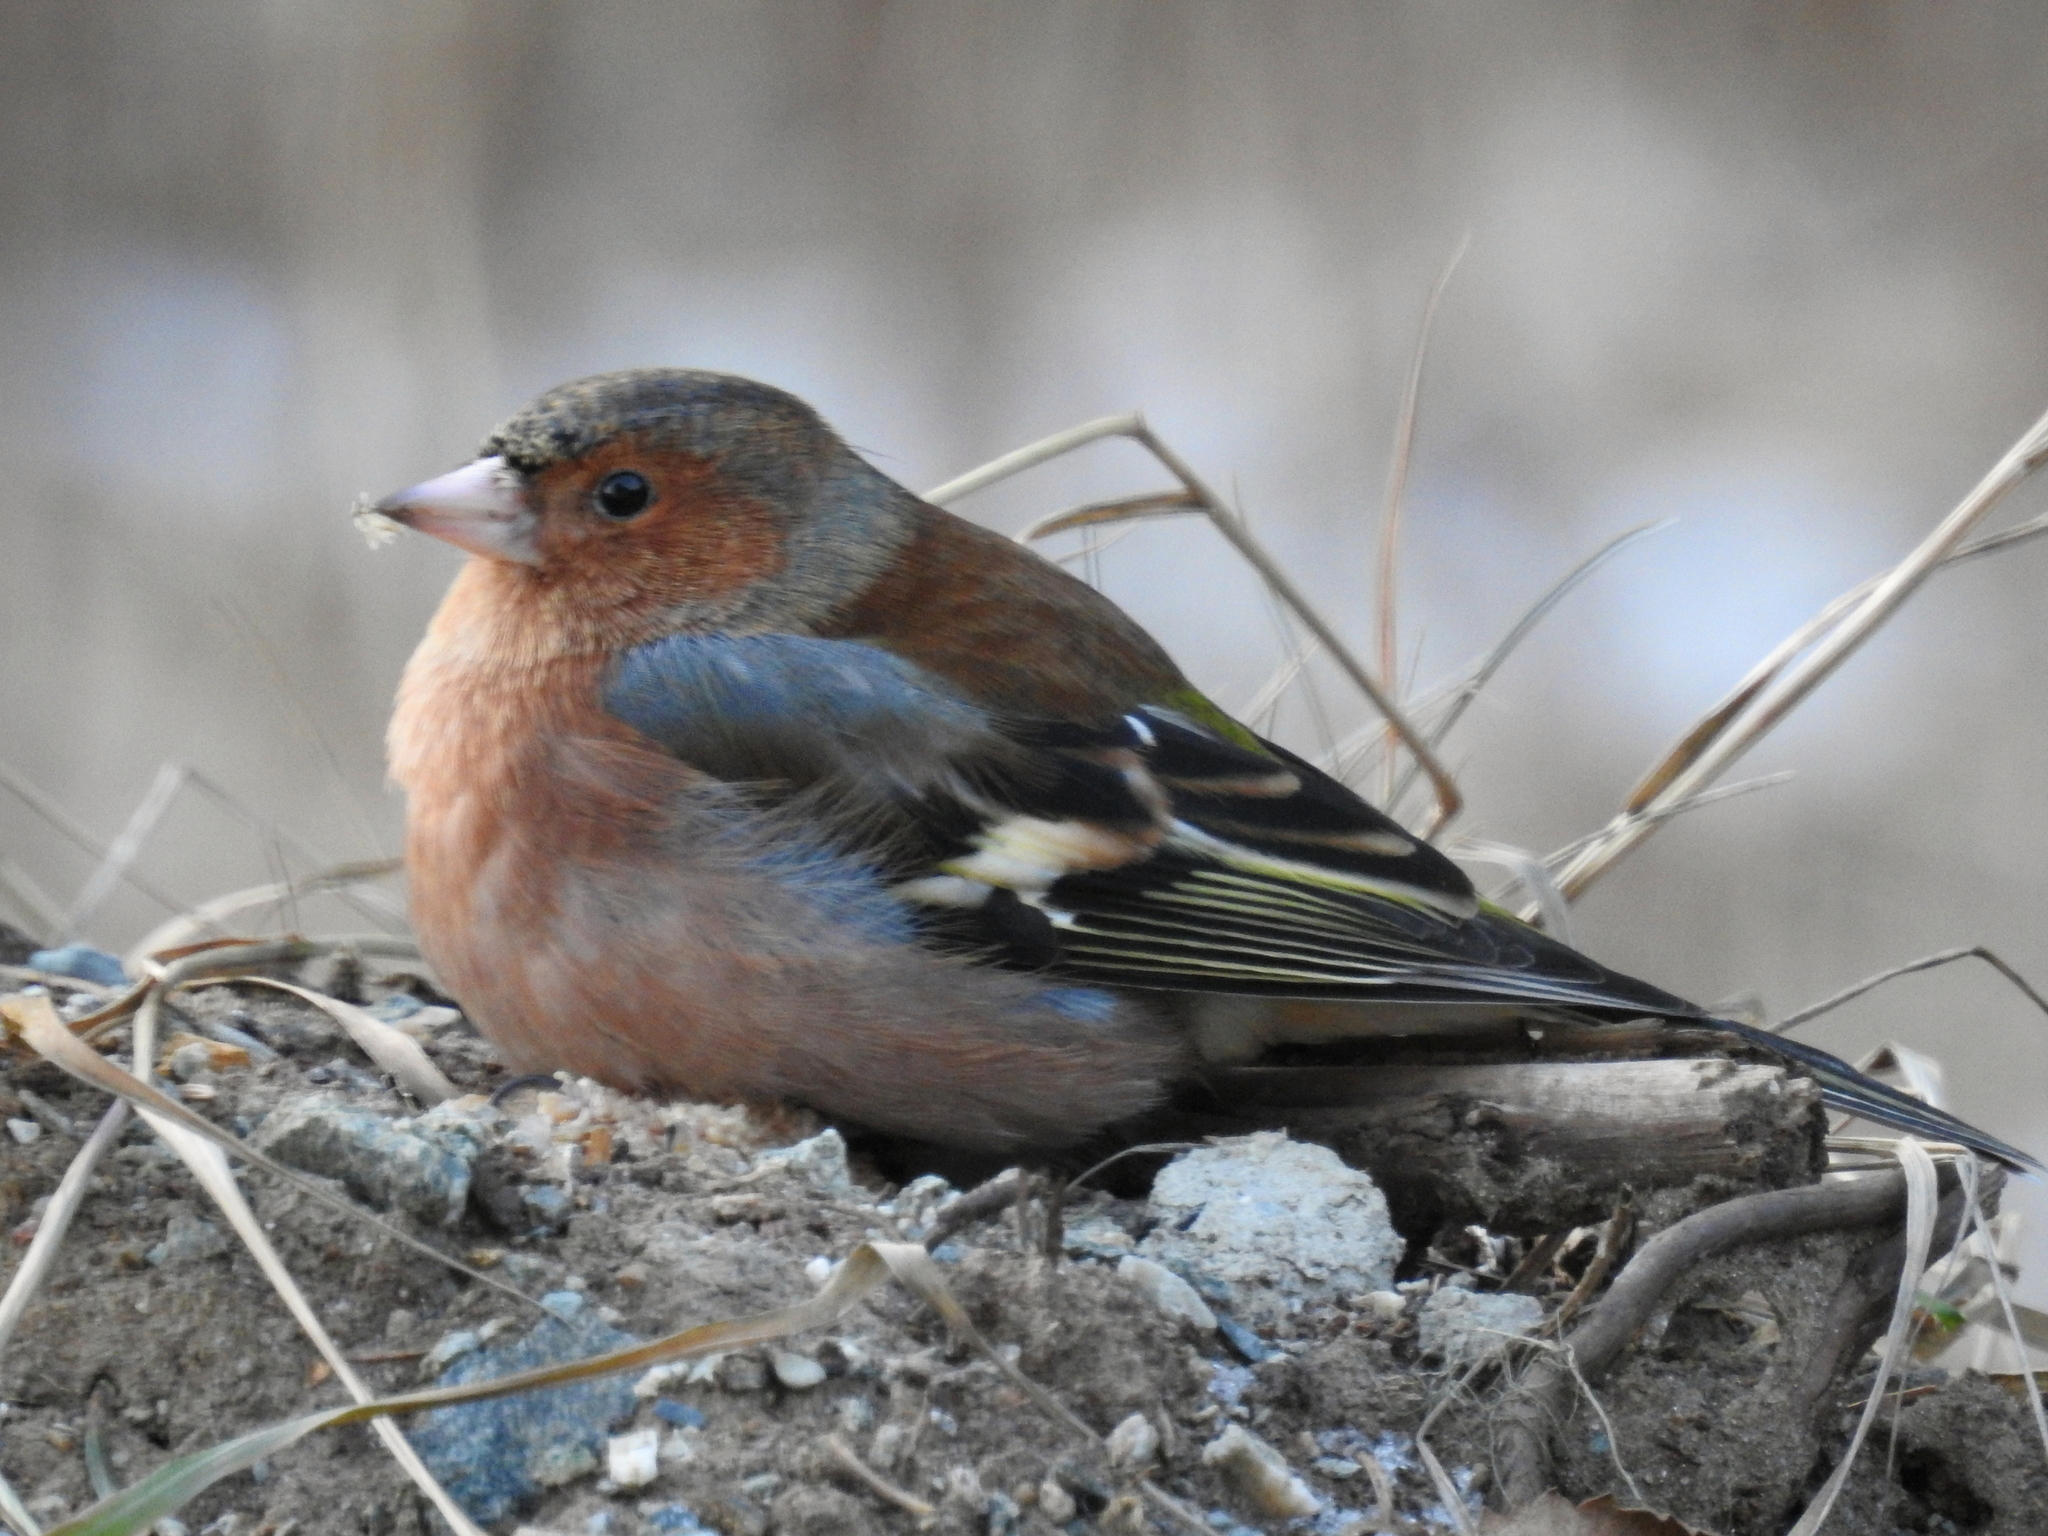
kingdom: Animalia
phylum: Chordata
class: Aves
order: Passeriformes
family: Fringillidae
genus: Fringilla
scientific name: Fringilla coelebs
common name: Common chaffinch
